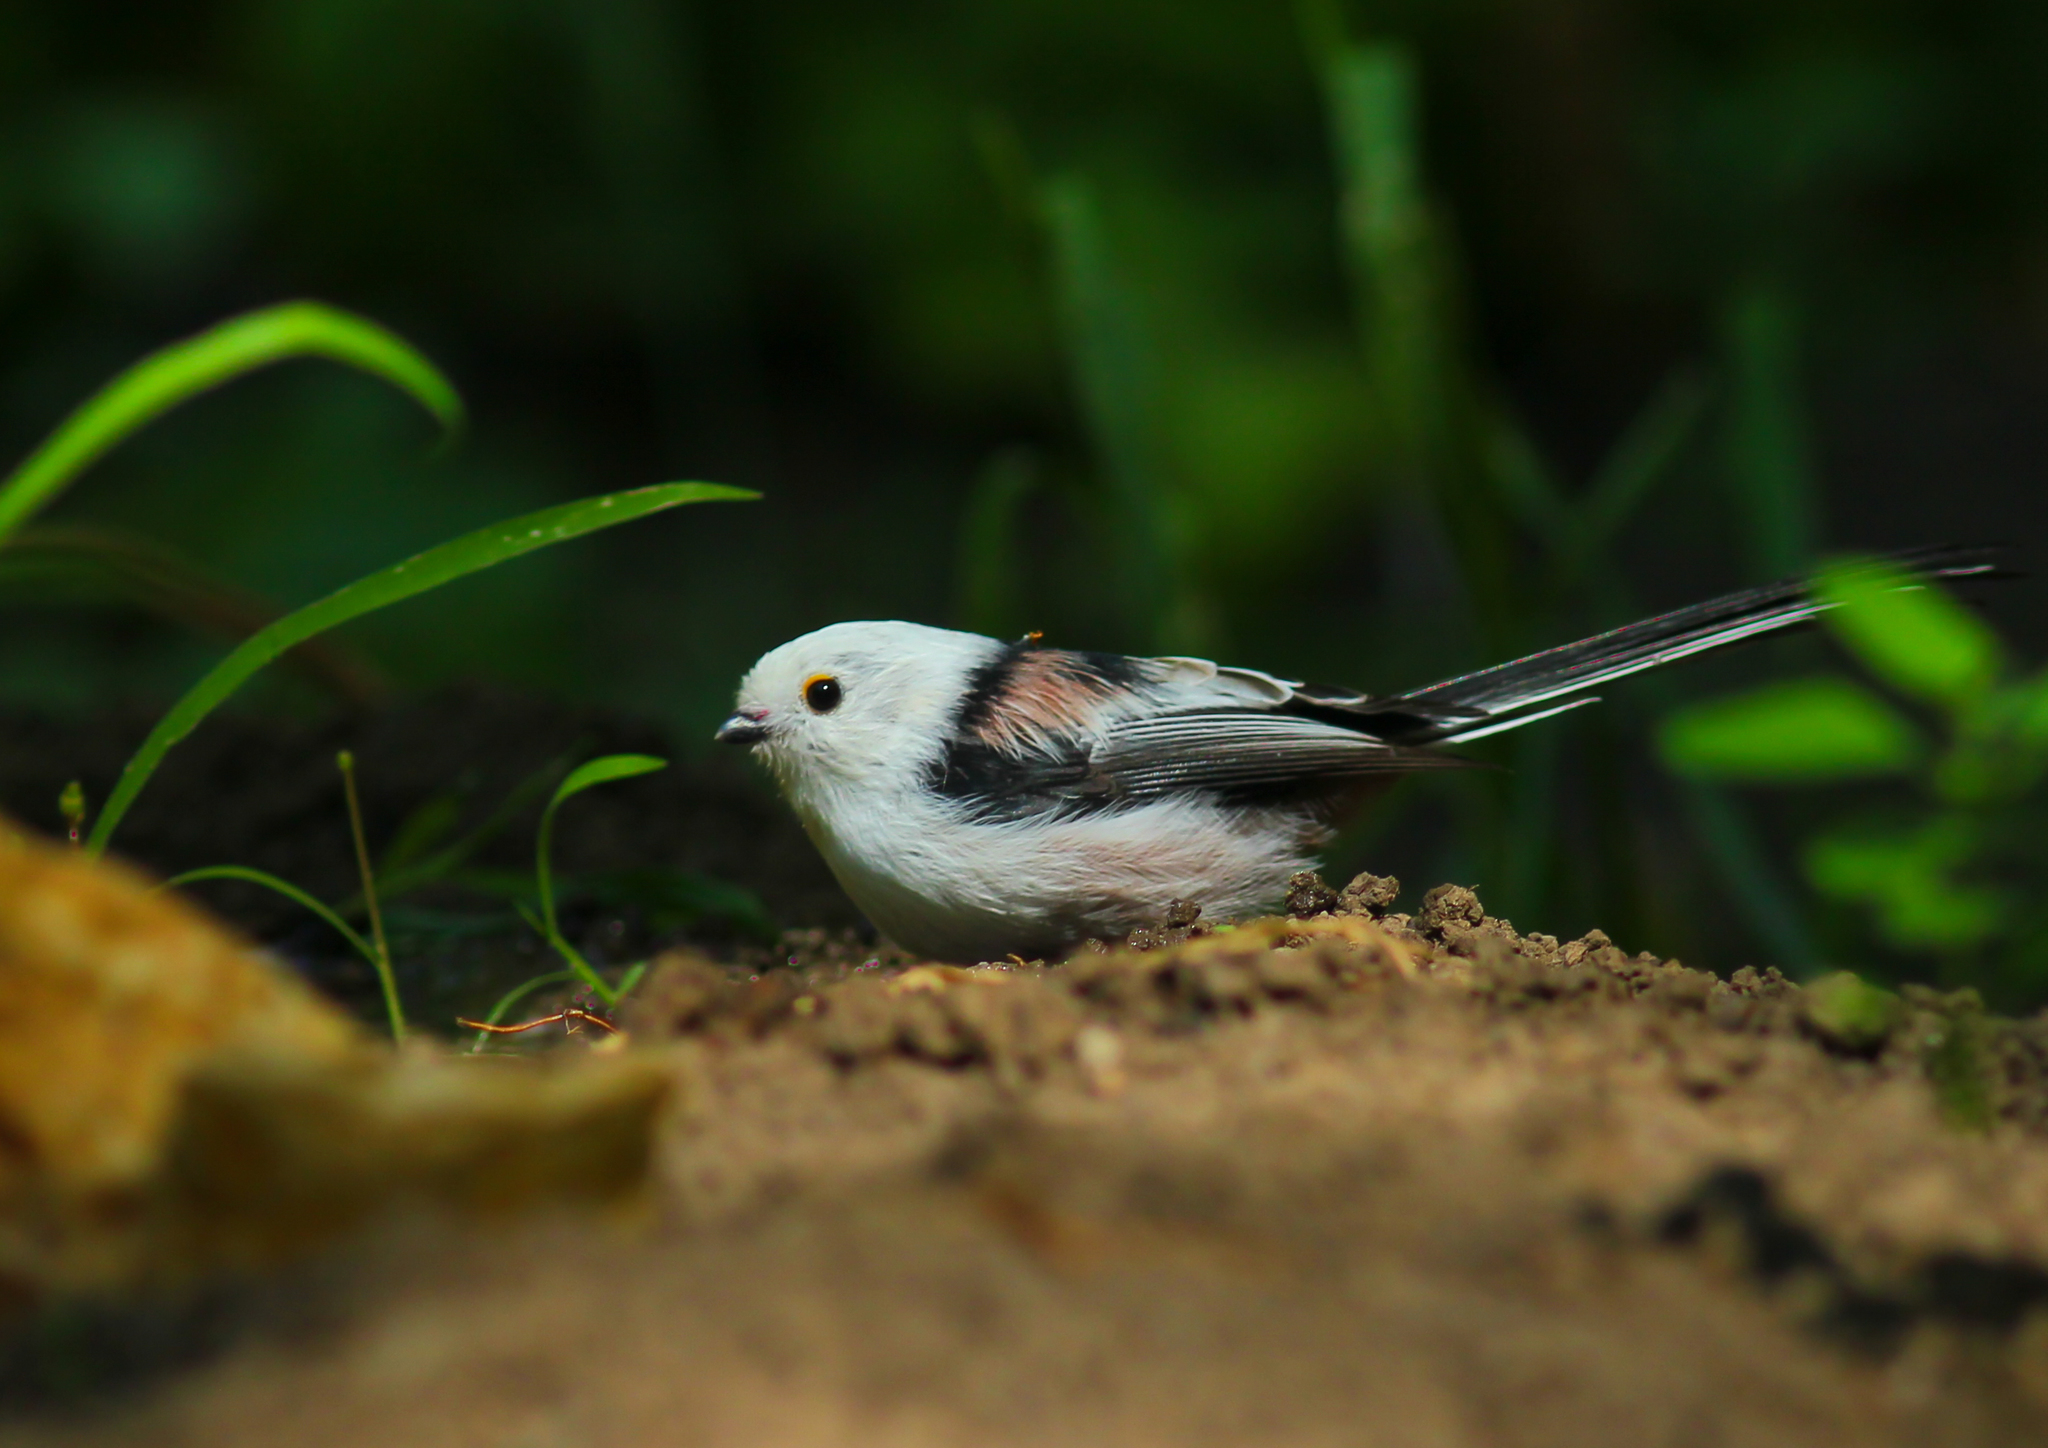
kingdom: Animalia
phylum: Chordata
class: Aves
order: Passeriformes
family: Aegithalidae
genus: Aegithalos
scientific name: Aegithalos caudatus
